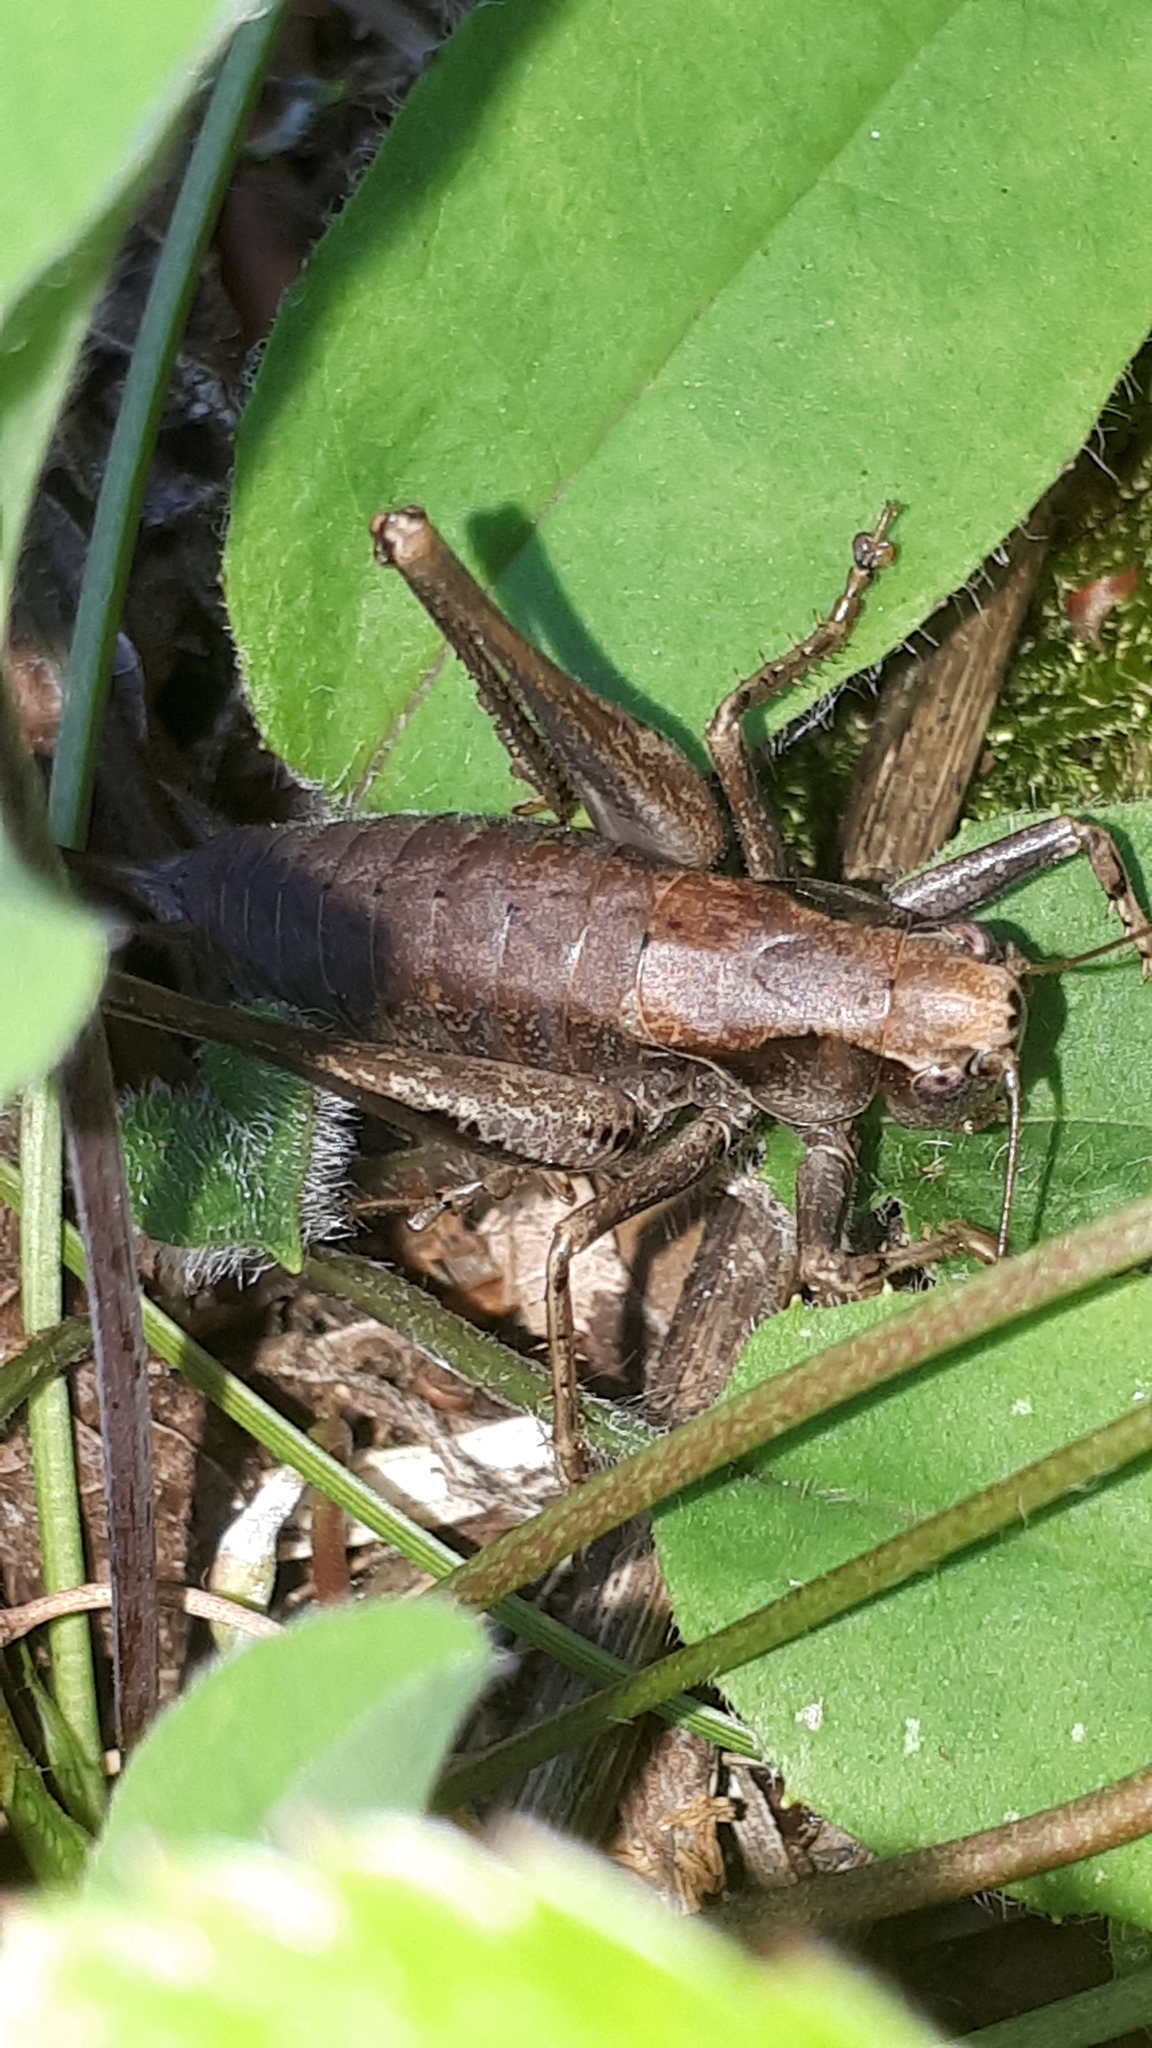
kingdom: Animalia
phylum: Arthropoda
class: Insecta
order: Orthoptera
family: Tettigoniidae
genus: Pholidoptera
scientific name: Pholidoptera griseoaptera
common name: Dark bush-cricket
